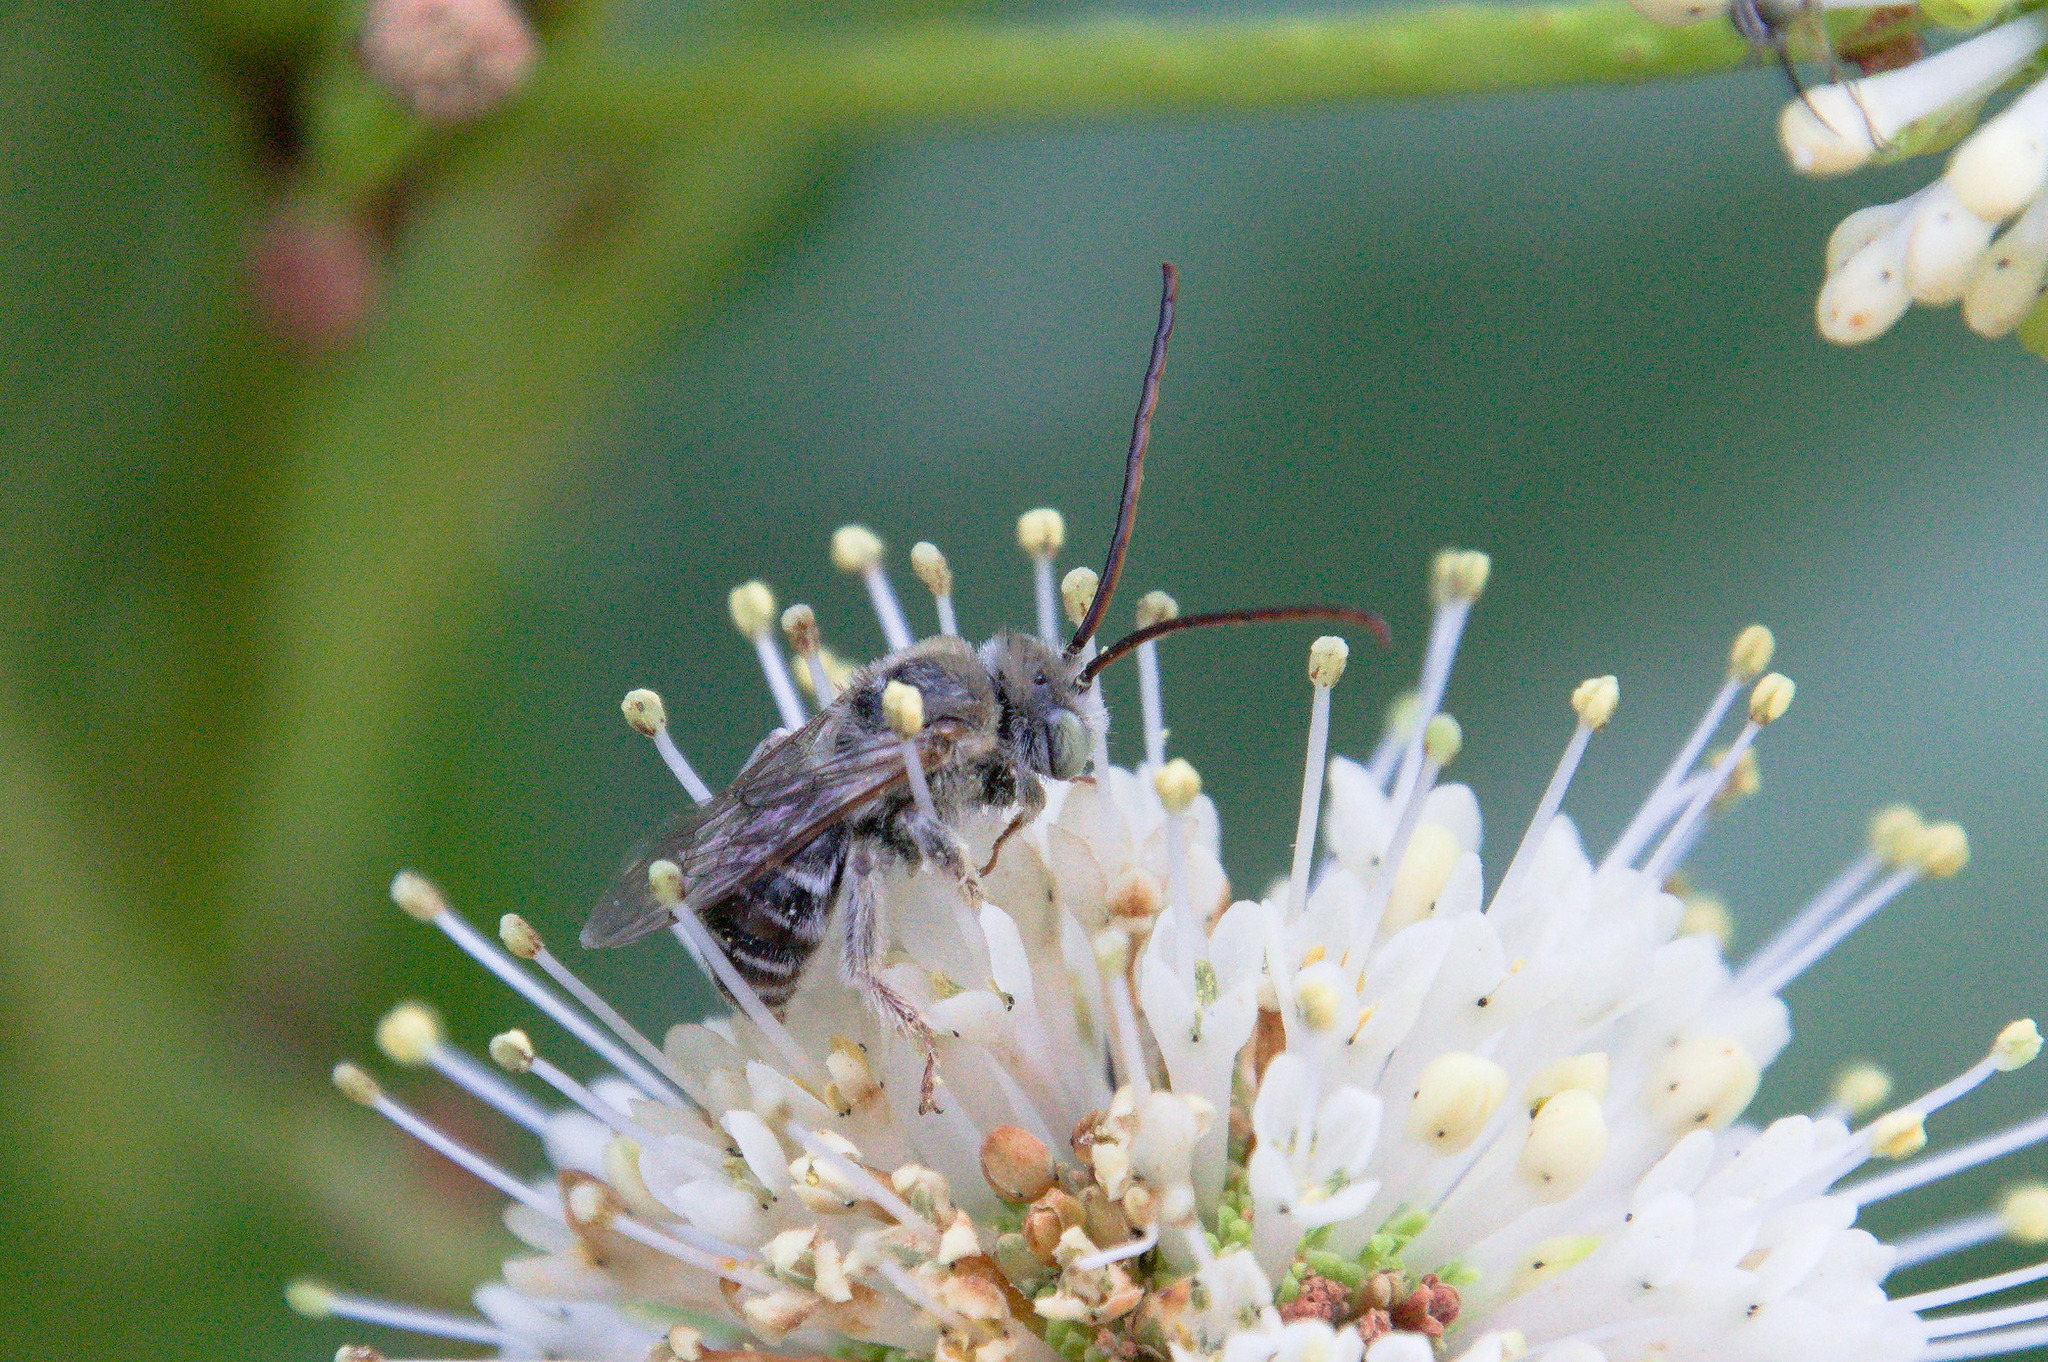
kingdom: Animalia
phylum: Arthropoda
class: Insecta
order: Hymenoptera
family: Apidae
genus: Melissodes
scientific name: Melissodes paroselae
